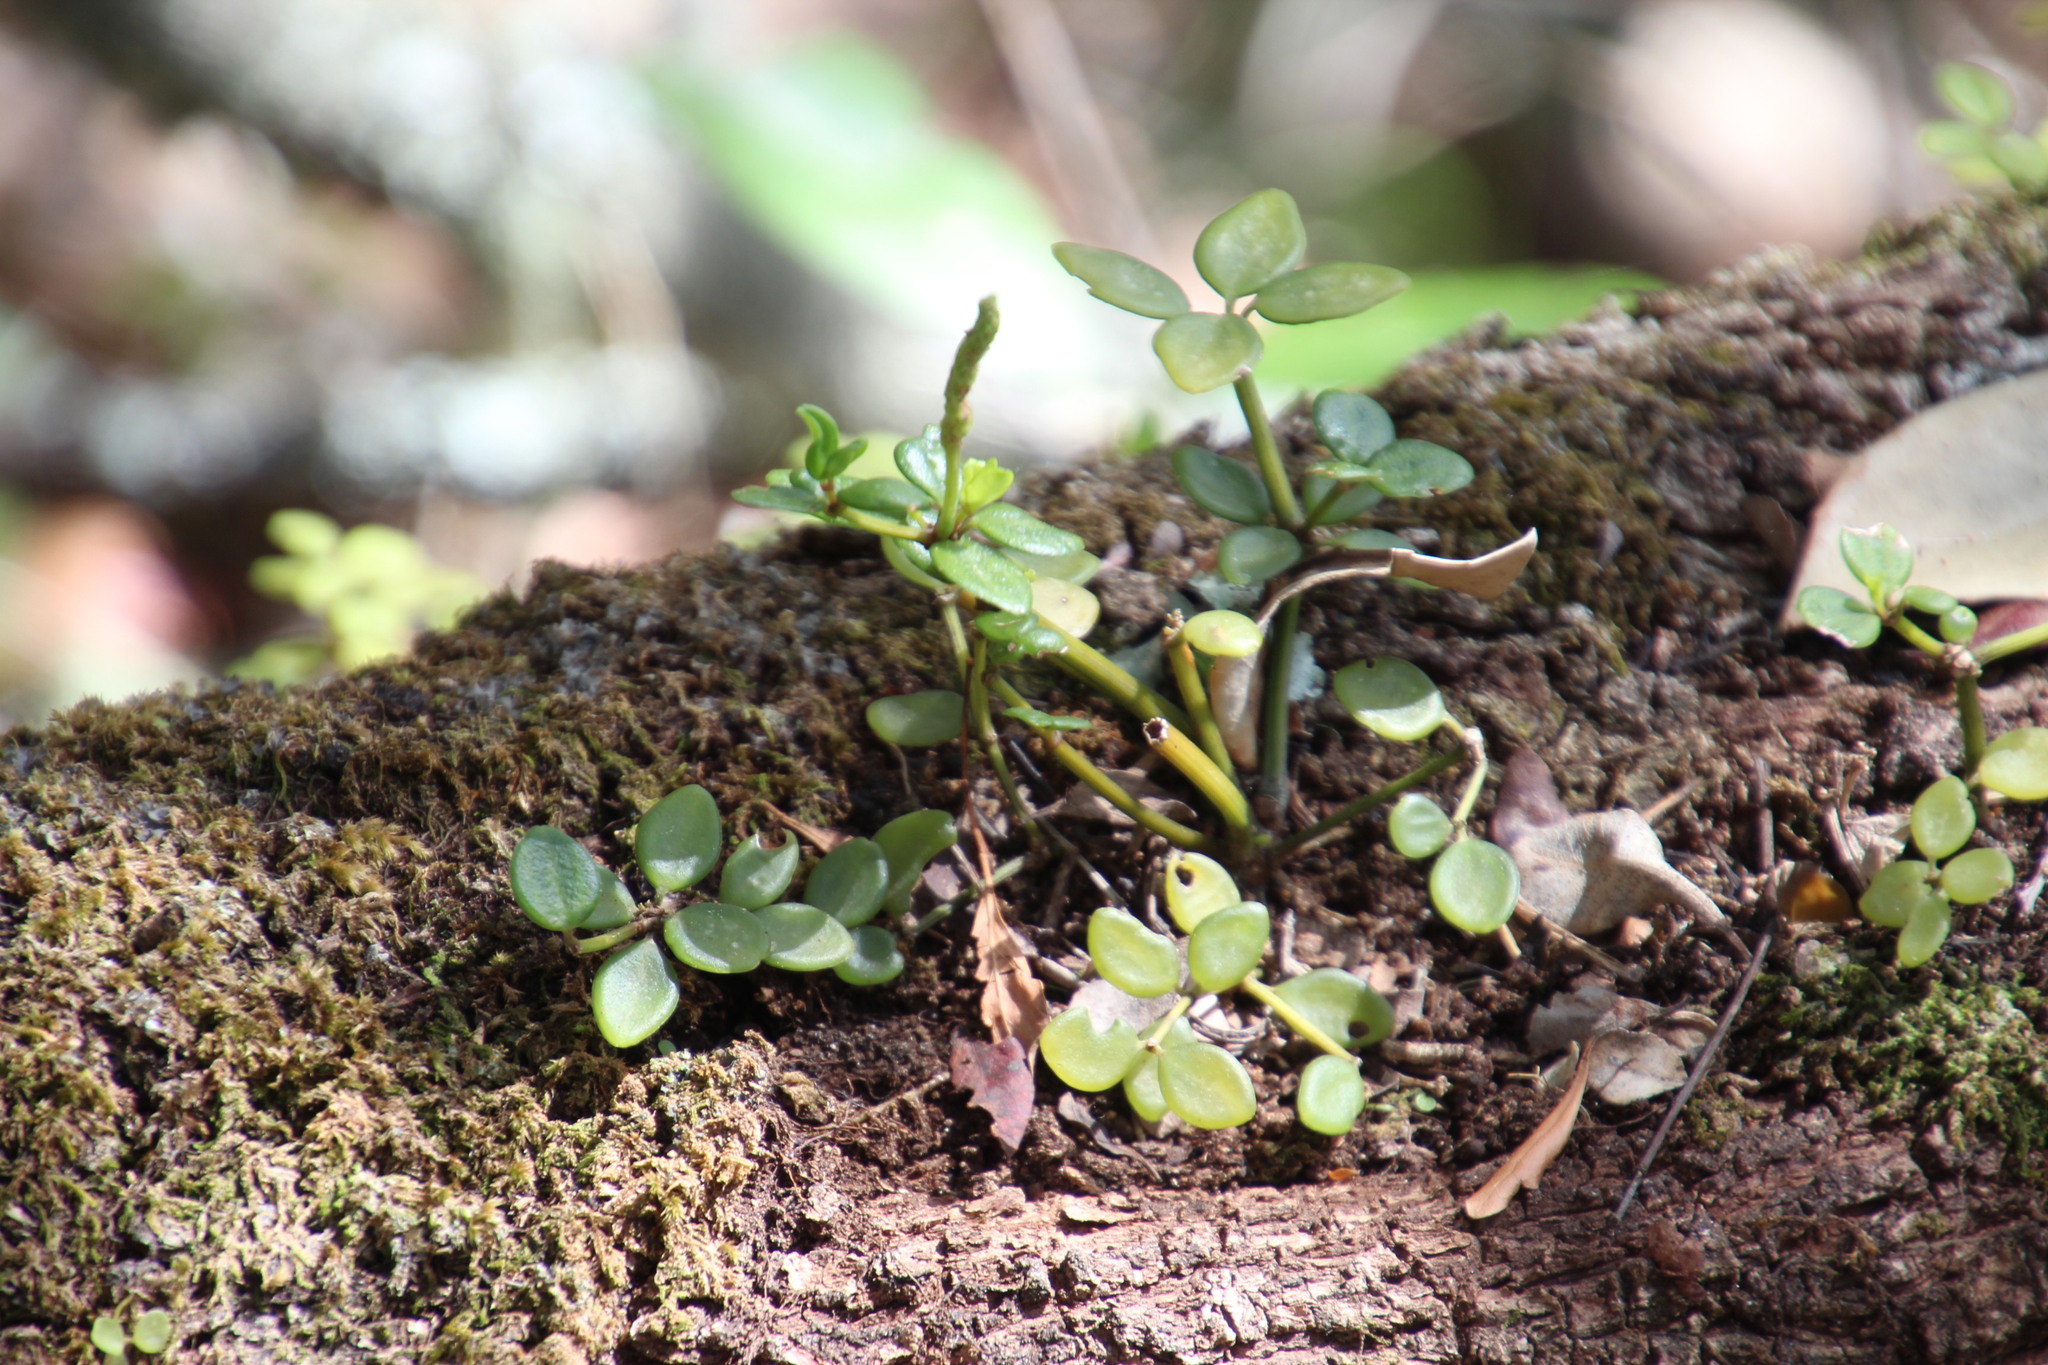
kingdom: Plantae
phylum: Tracheophyta
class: Magnoliopsida
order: Piperales
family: Piperaceae
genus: Peperomia
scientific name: Peperomia tetraphylla
